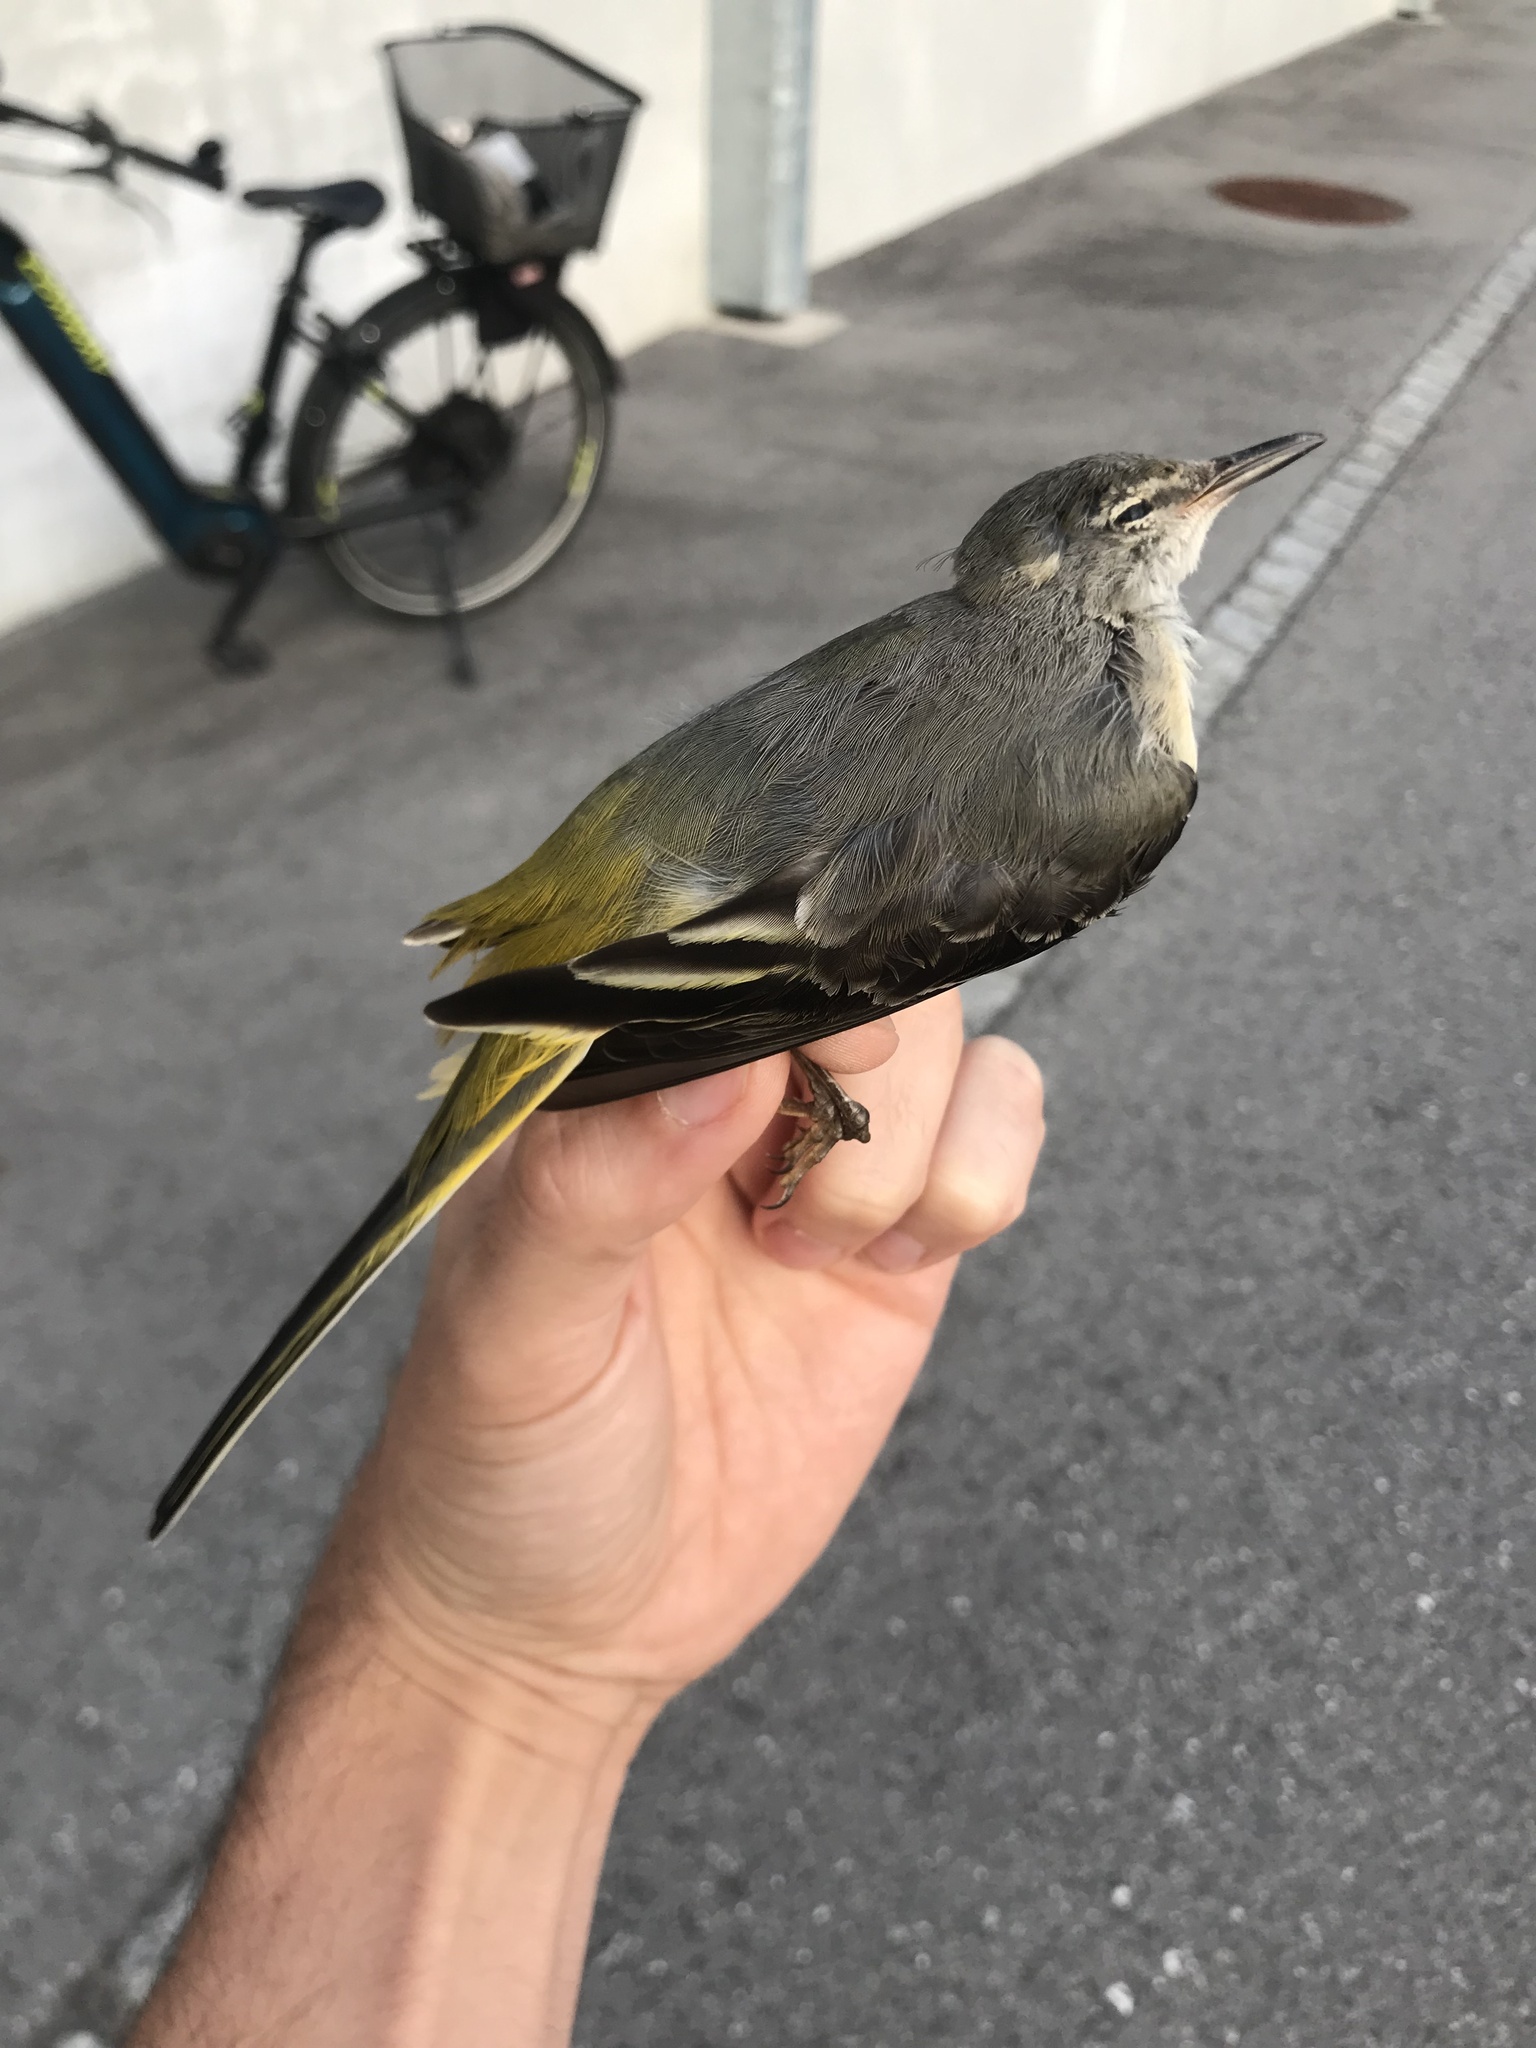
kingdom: Animalia
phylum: Chordata
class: Aves
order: Passeriformes
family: Motacillidae
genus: Motacilla
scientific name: Motacilla cinerea
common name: Grey wagtail
